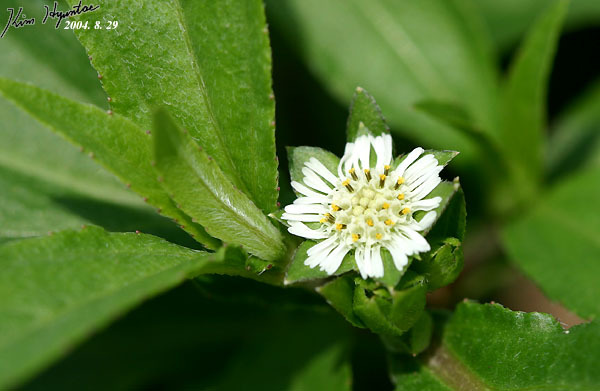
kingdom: Plantae
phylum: Tracheophyta
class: Magnoliopsida
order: Asterales
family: Asteraceae
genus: Eclipta
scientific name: Eclipta prostrata
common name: False daisy
